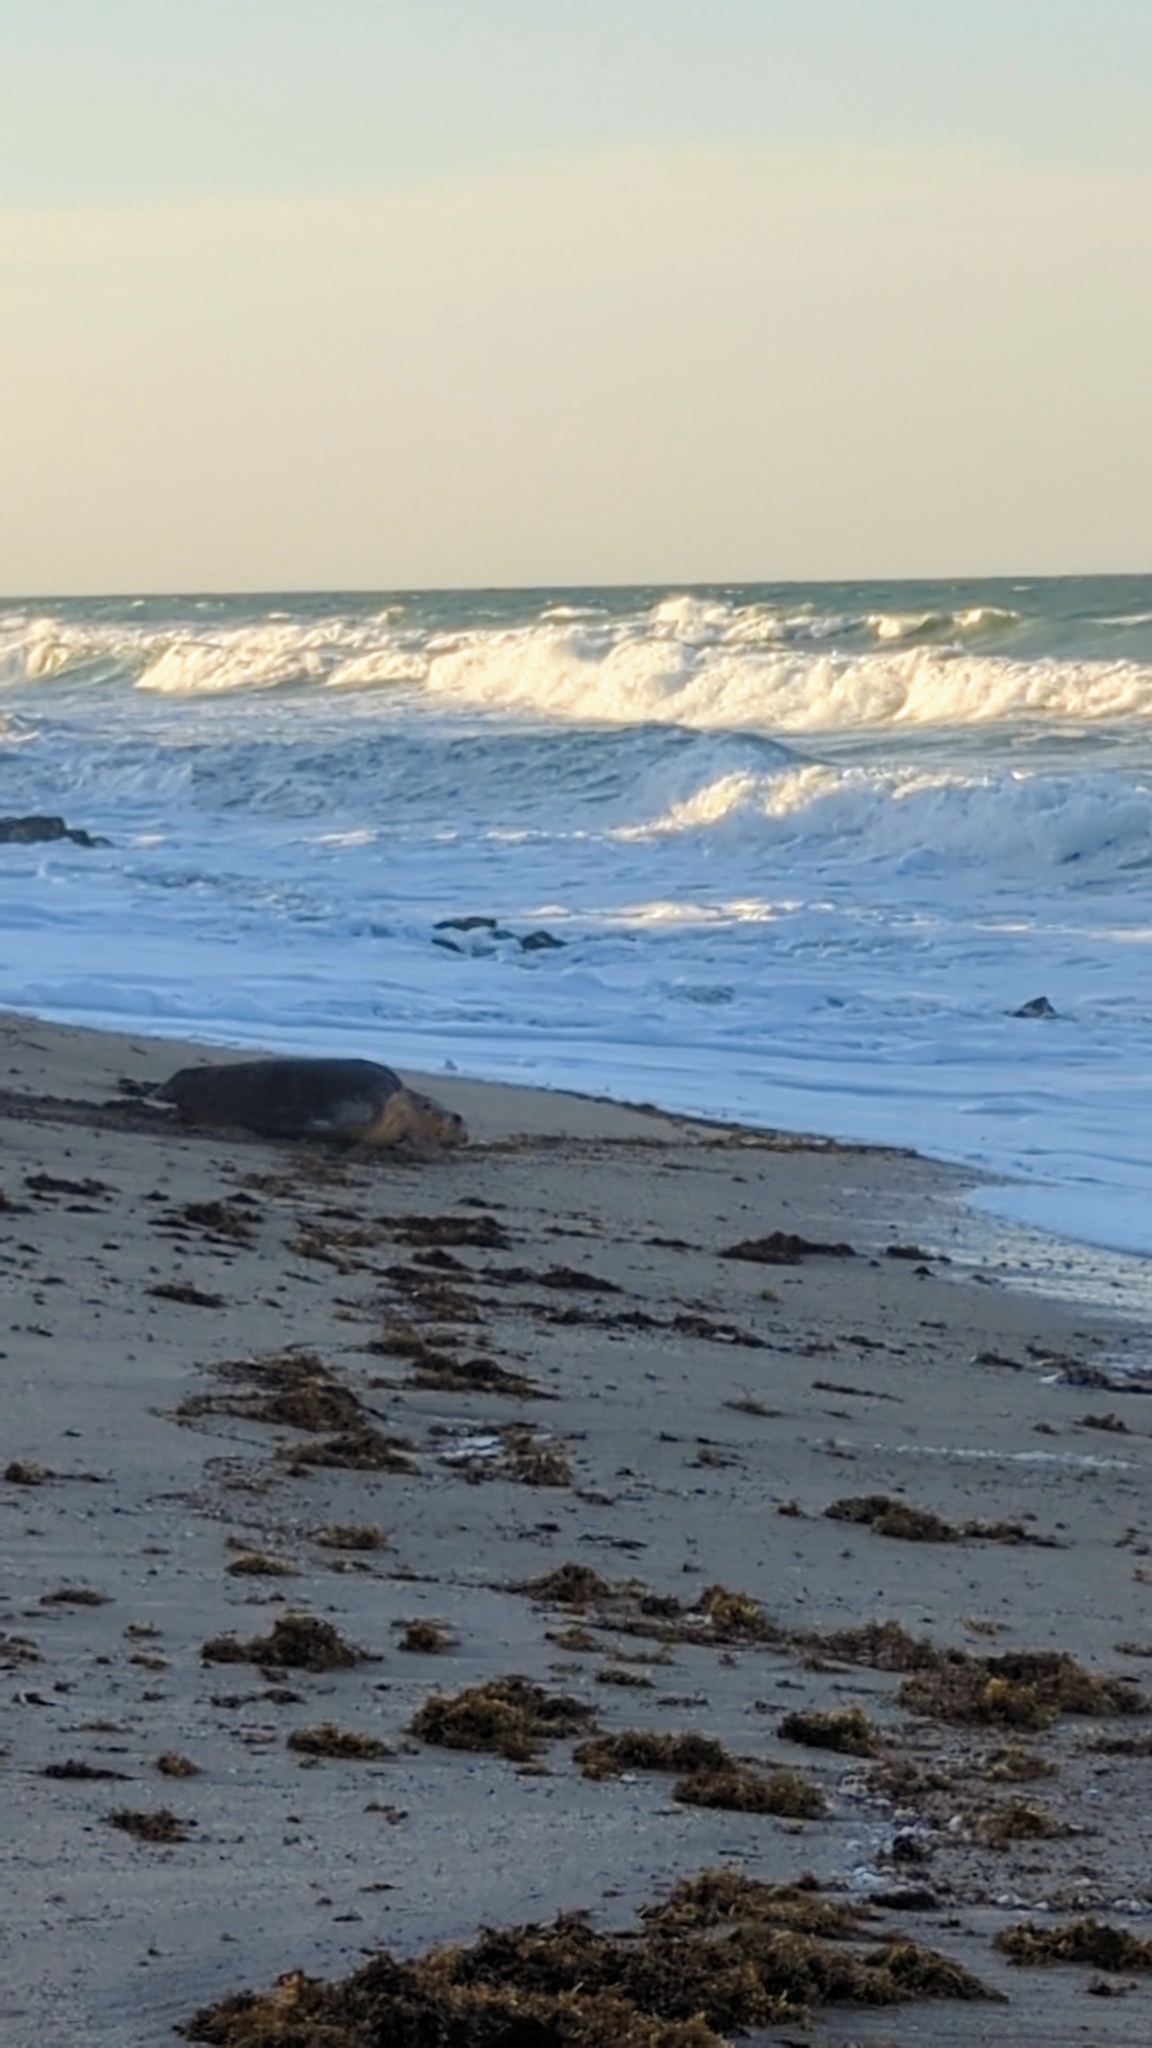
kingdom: Animalia
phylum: Chordata
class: Testudines
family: Cheloniidae
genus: Caretta
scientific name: Caretta caretta
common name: Loggerhead sea turtle
